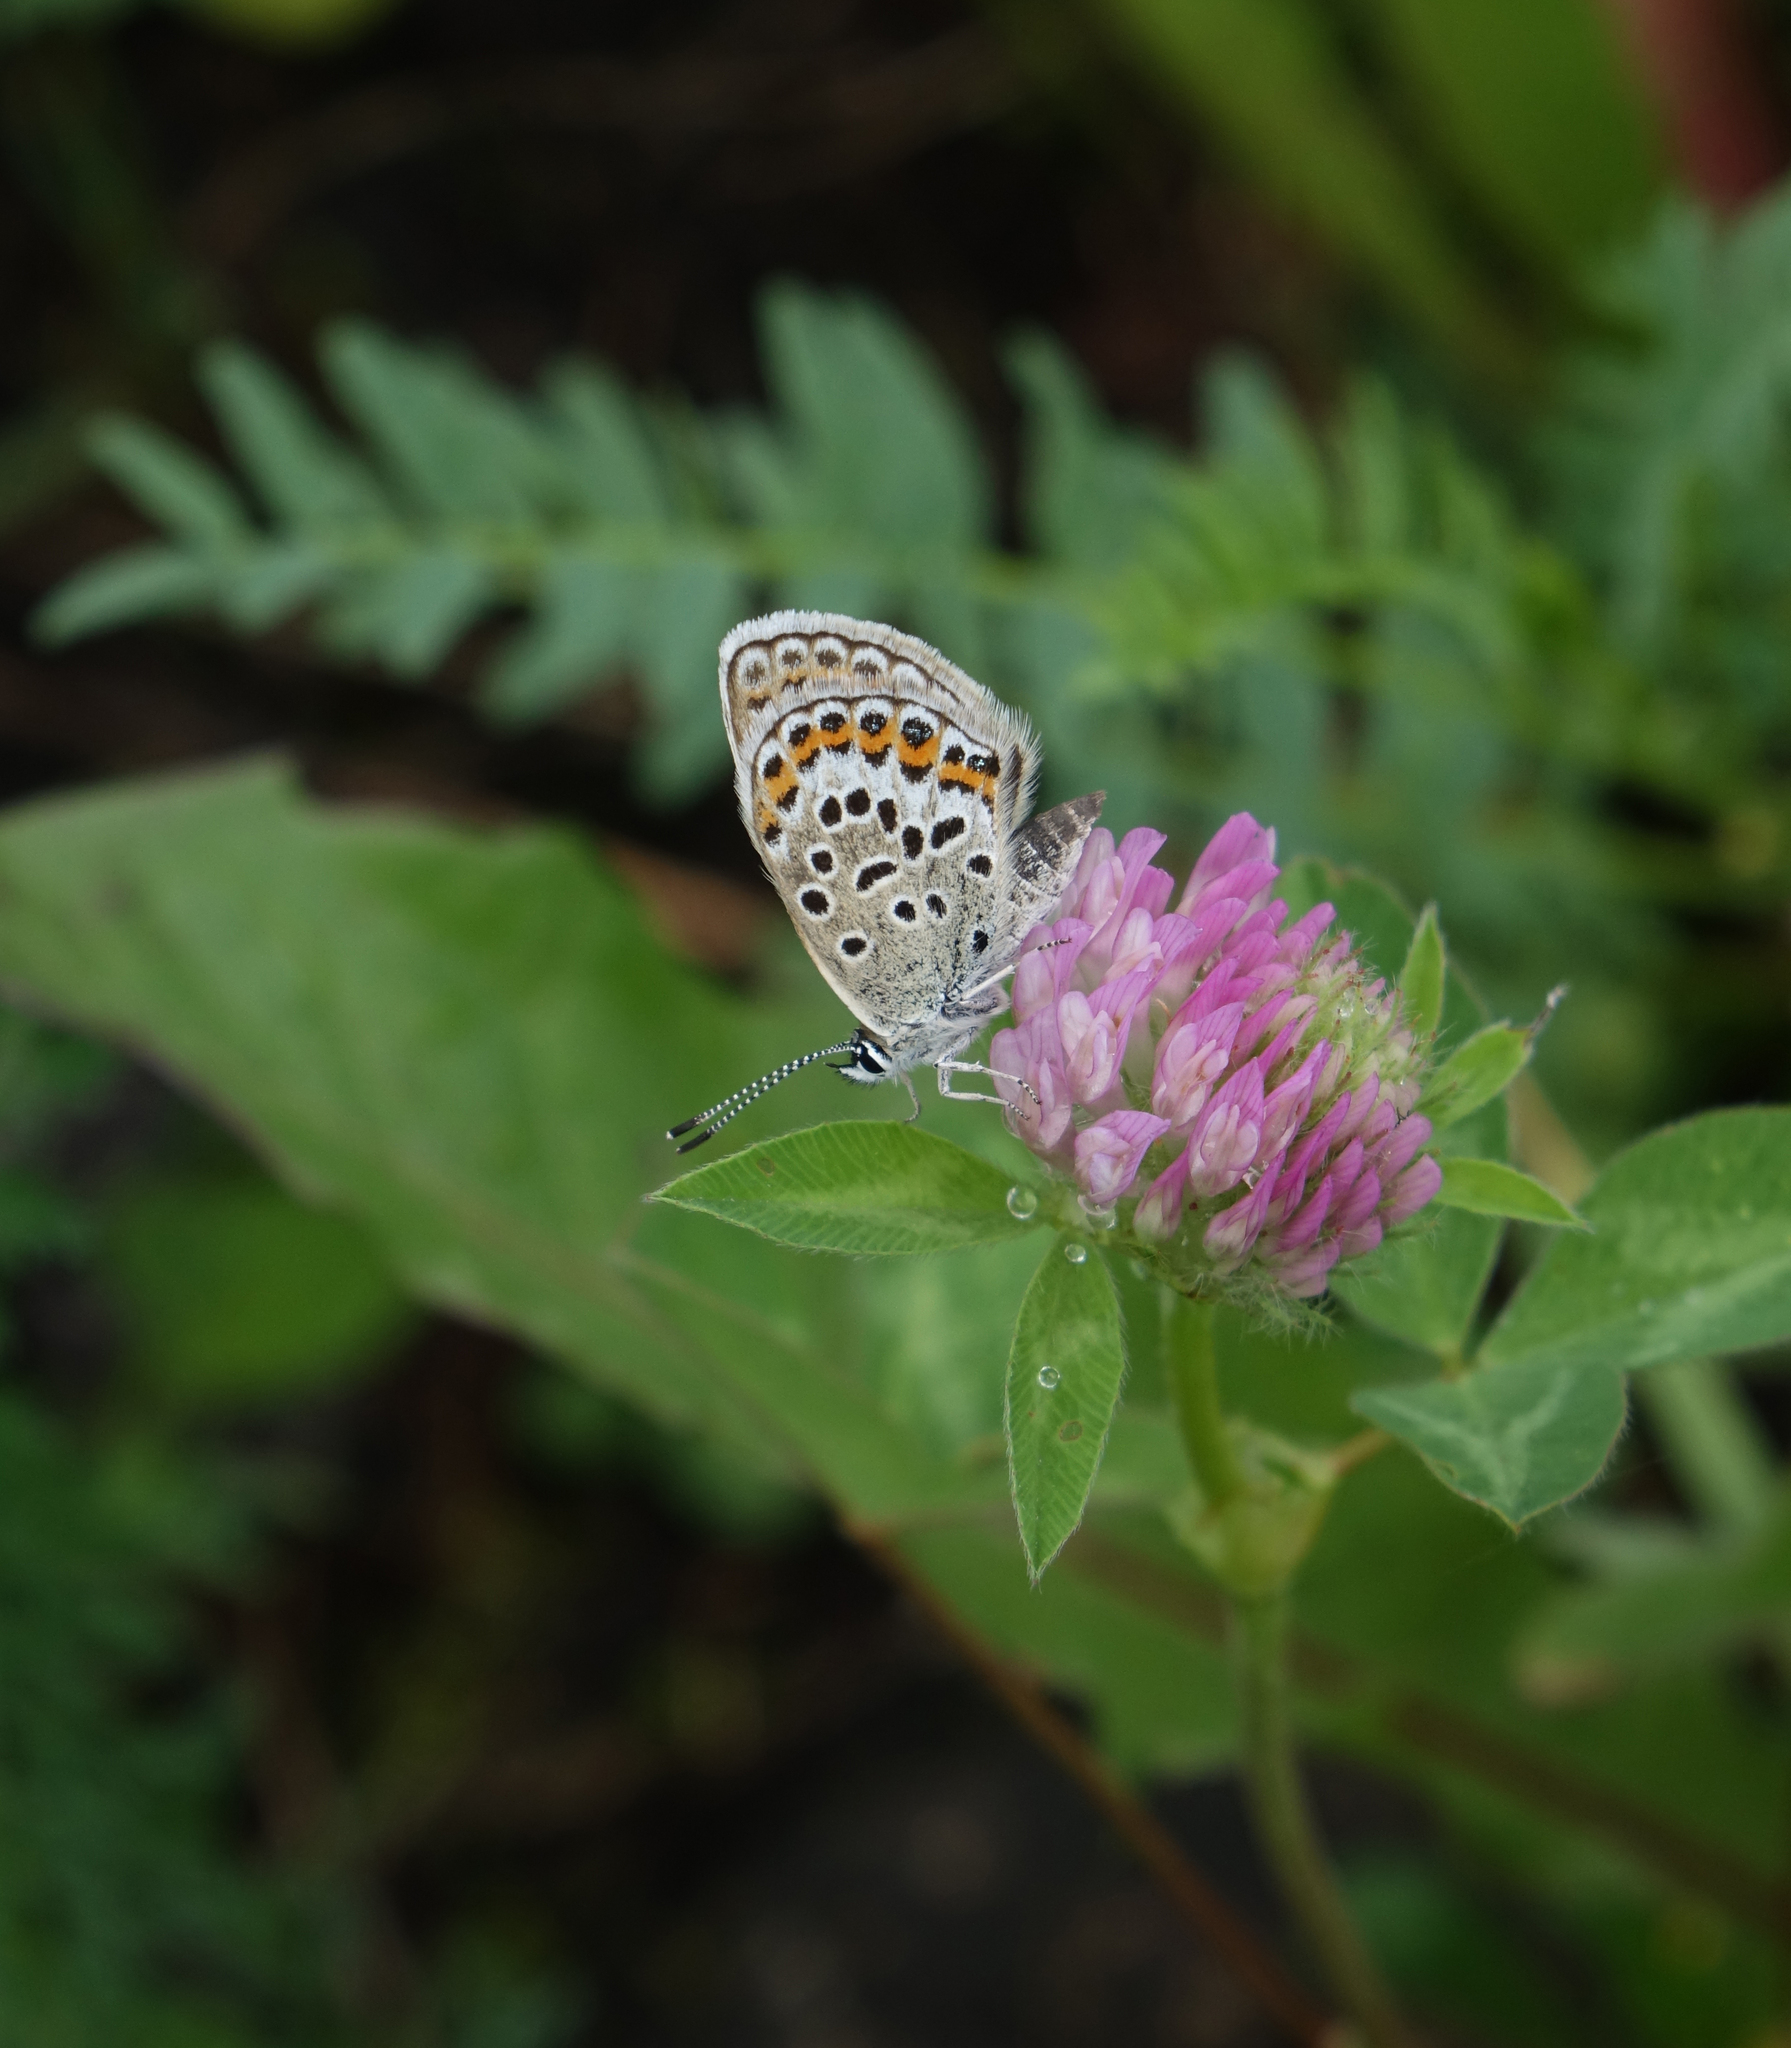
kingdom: Plantae
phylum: Tracheophyta
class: Magnoliopsida
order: Fabales
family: Fabaceae
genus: Trifolium
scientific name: Trifolium pratense
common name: Red clover
